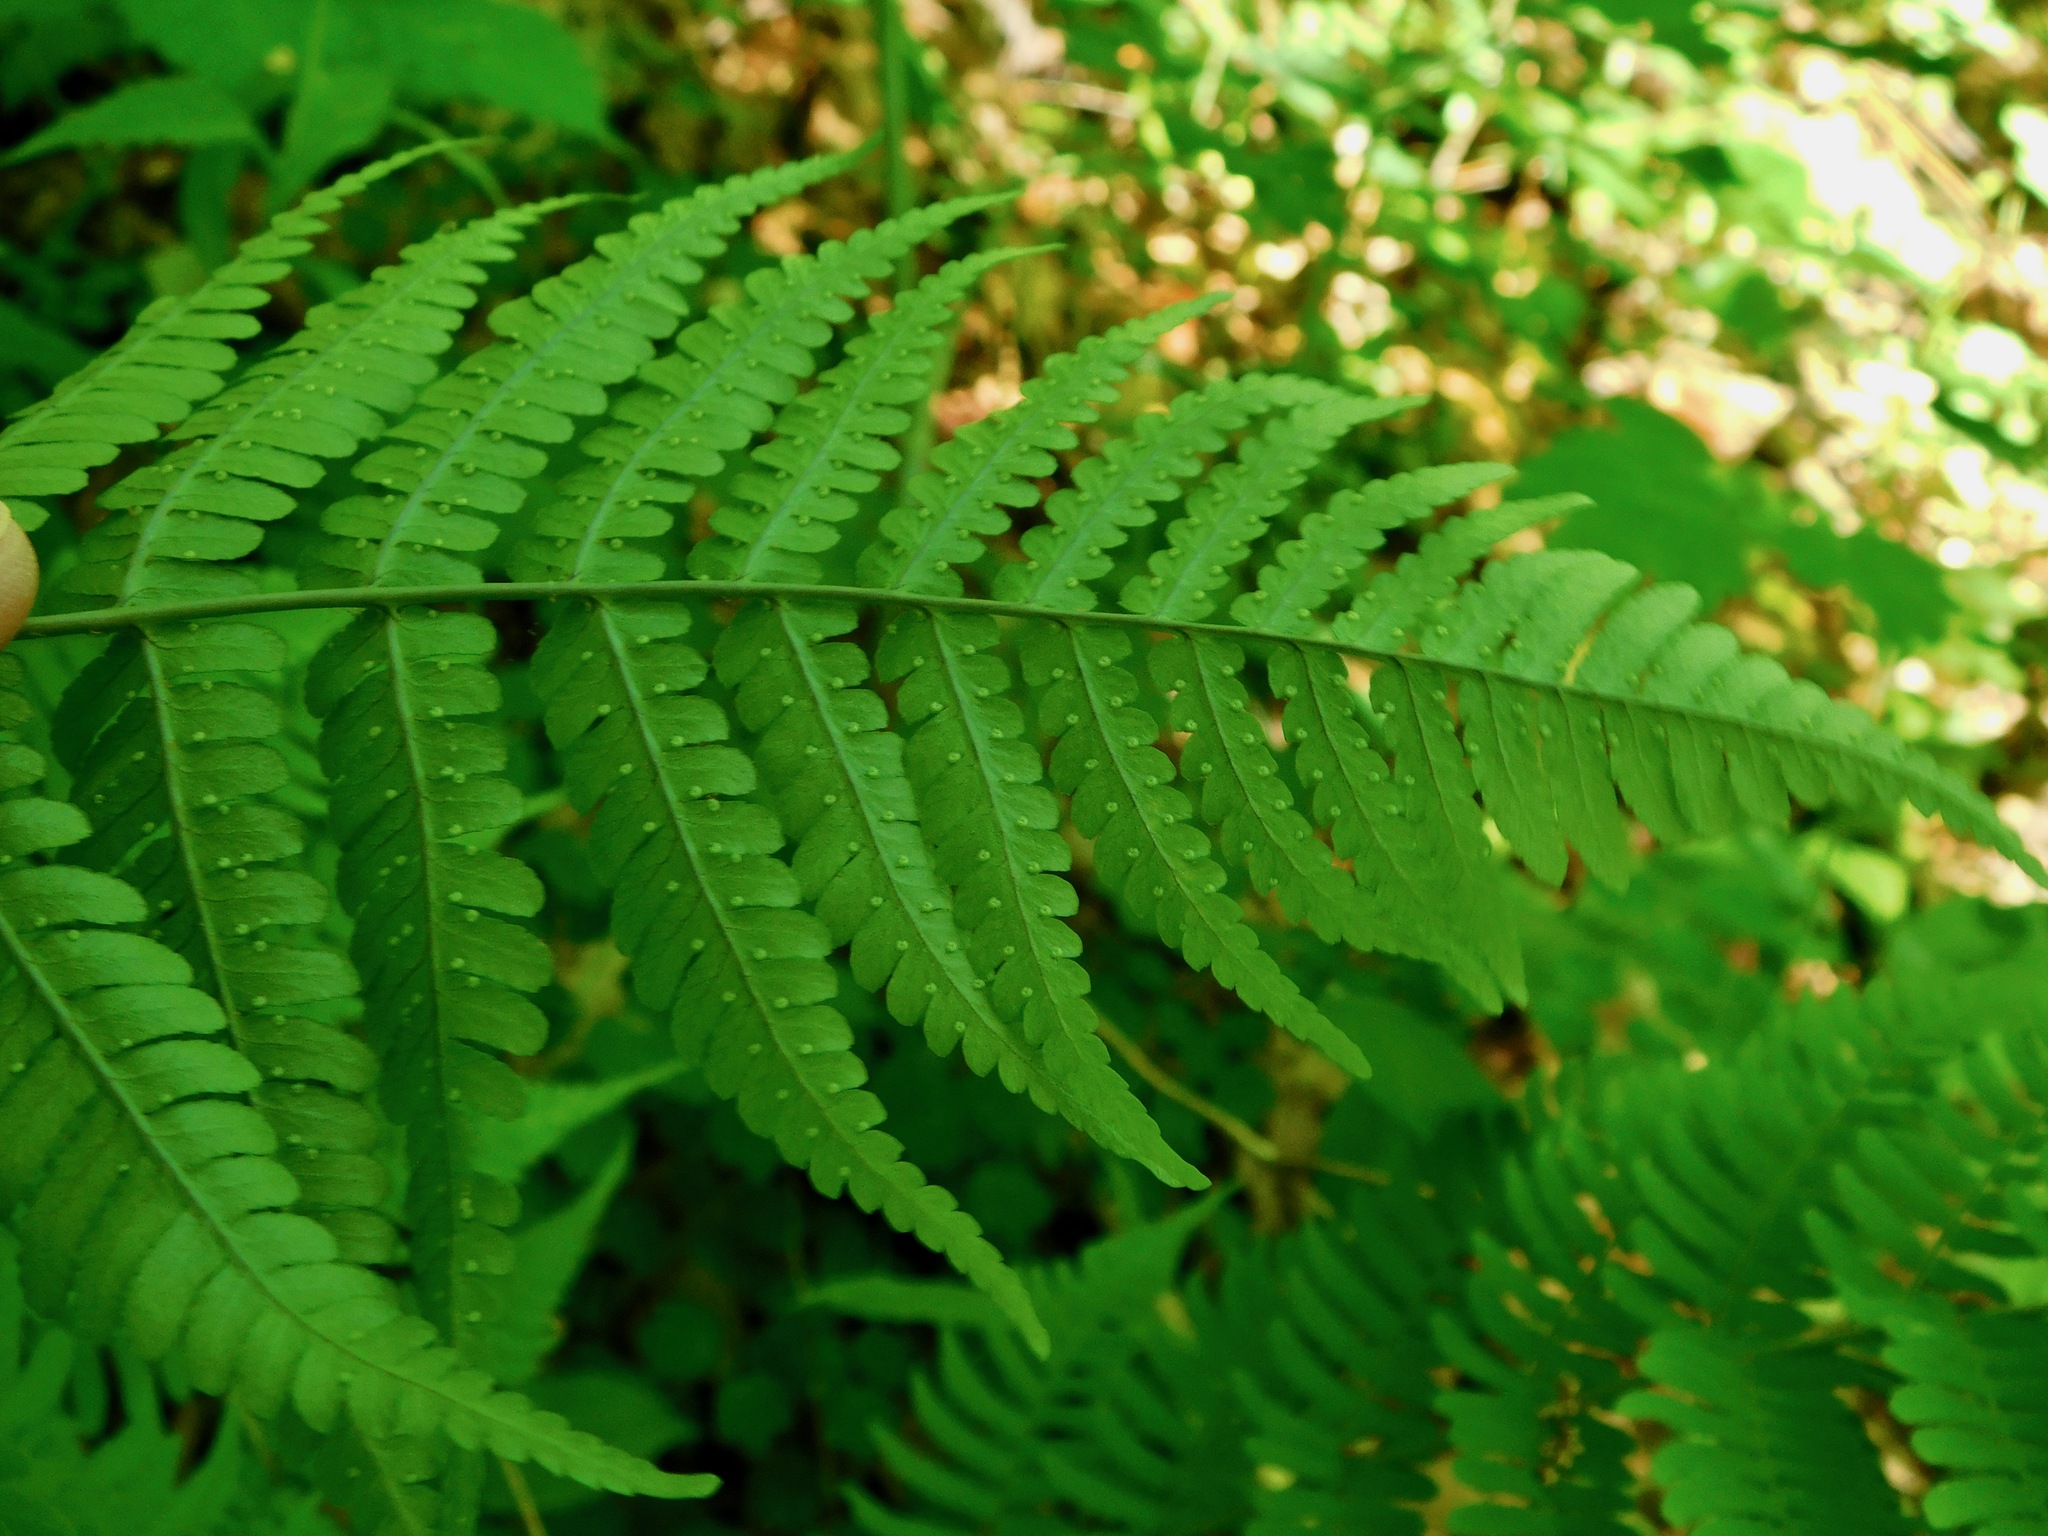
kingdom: Plantae
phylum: Tracheophyta
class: Polypodiopsida
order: Polypodiales
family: Dryopteridaceae
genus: Dryopteris
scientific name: Dryopteris marginalis
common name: Marginal wood fern
